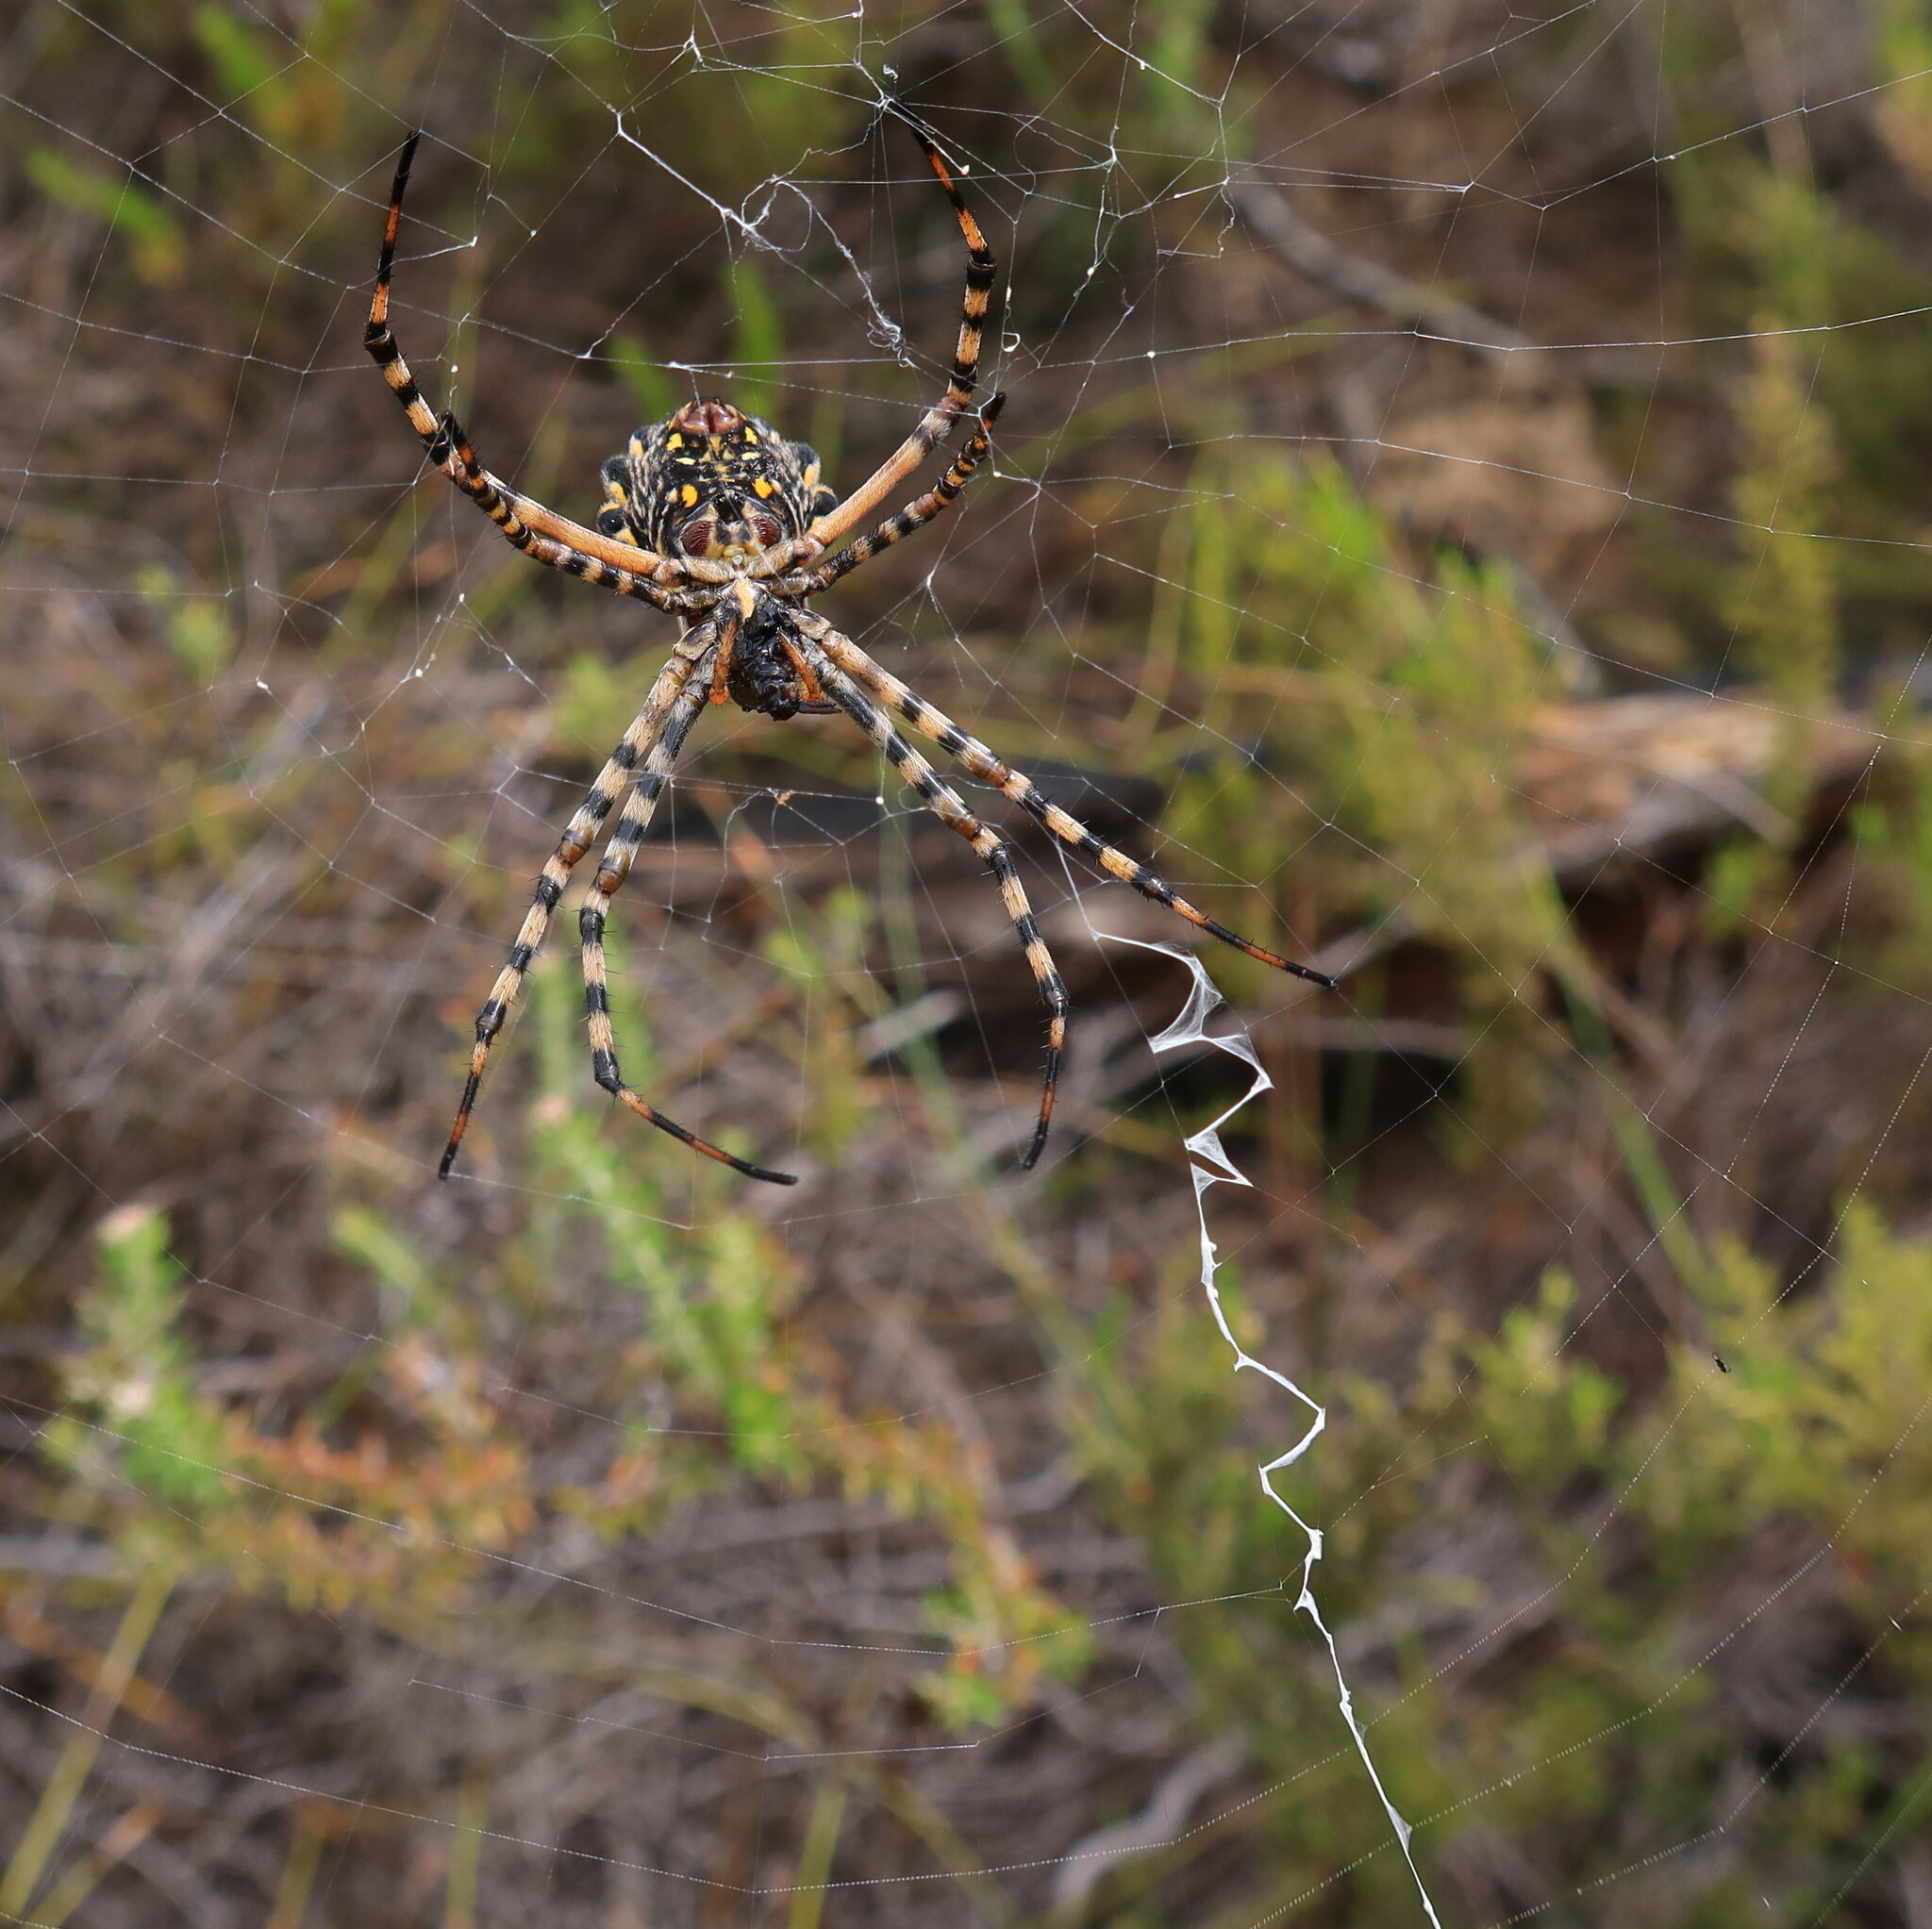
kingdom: Animalia
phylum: Arthropoda
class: Arachnida
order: Araneae
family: Araneidae
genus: Argiope
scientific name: Argiope australis
